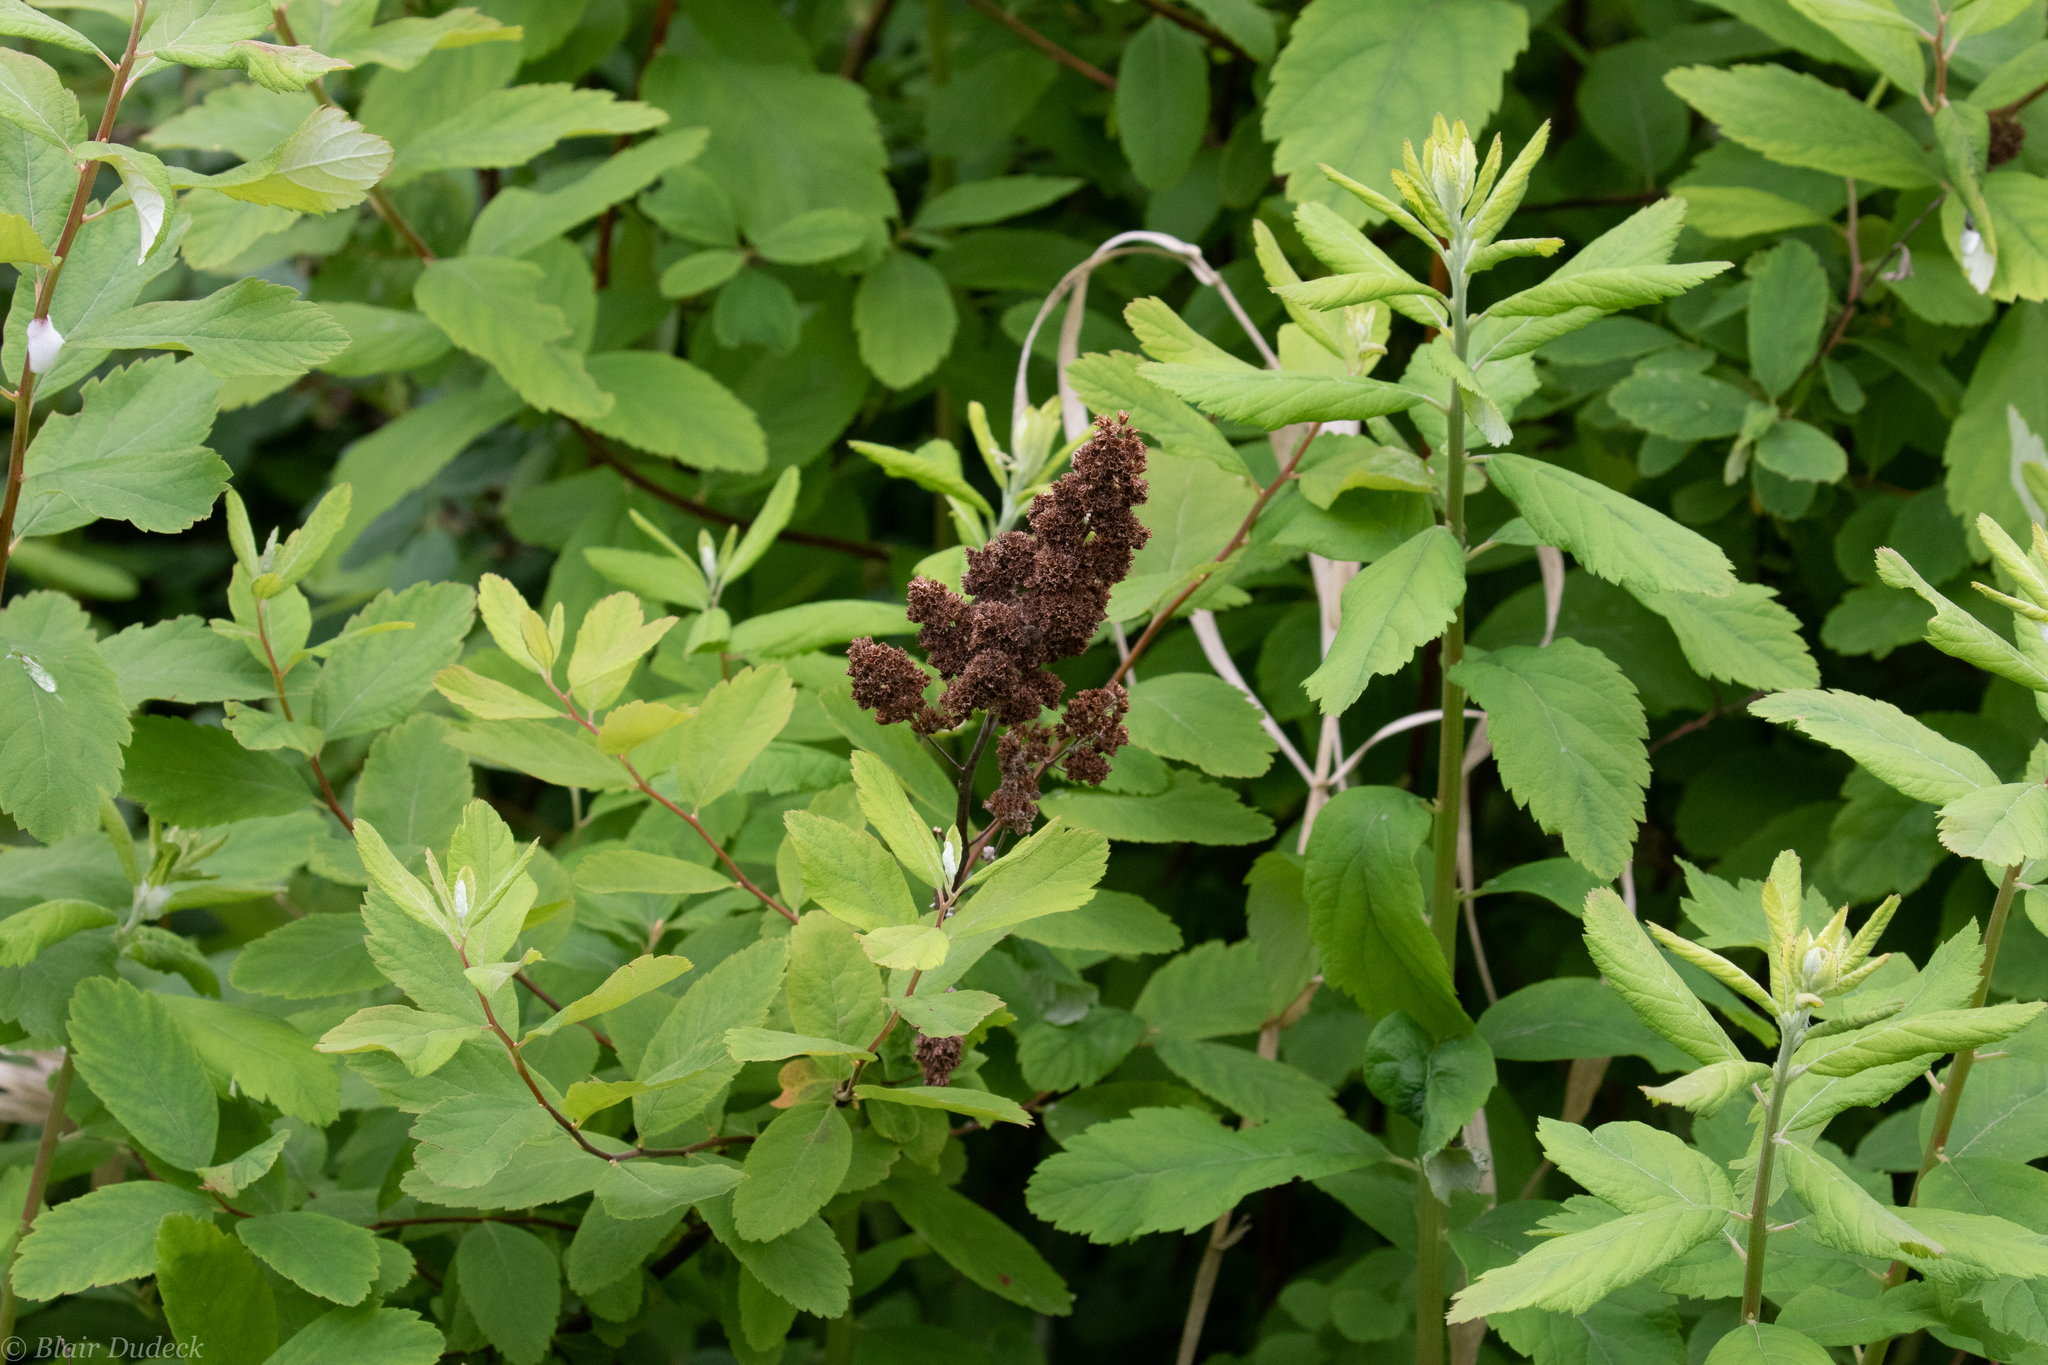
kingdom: Plantae
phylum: Tracheophyta
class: Magnoliopsida
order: Rosales
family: Rosaceae
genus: Spiraea
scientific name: Spiraea douglasii
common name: Steeplebush
